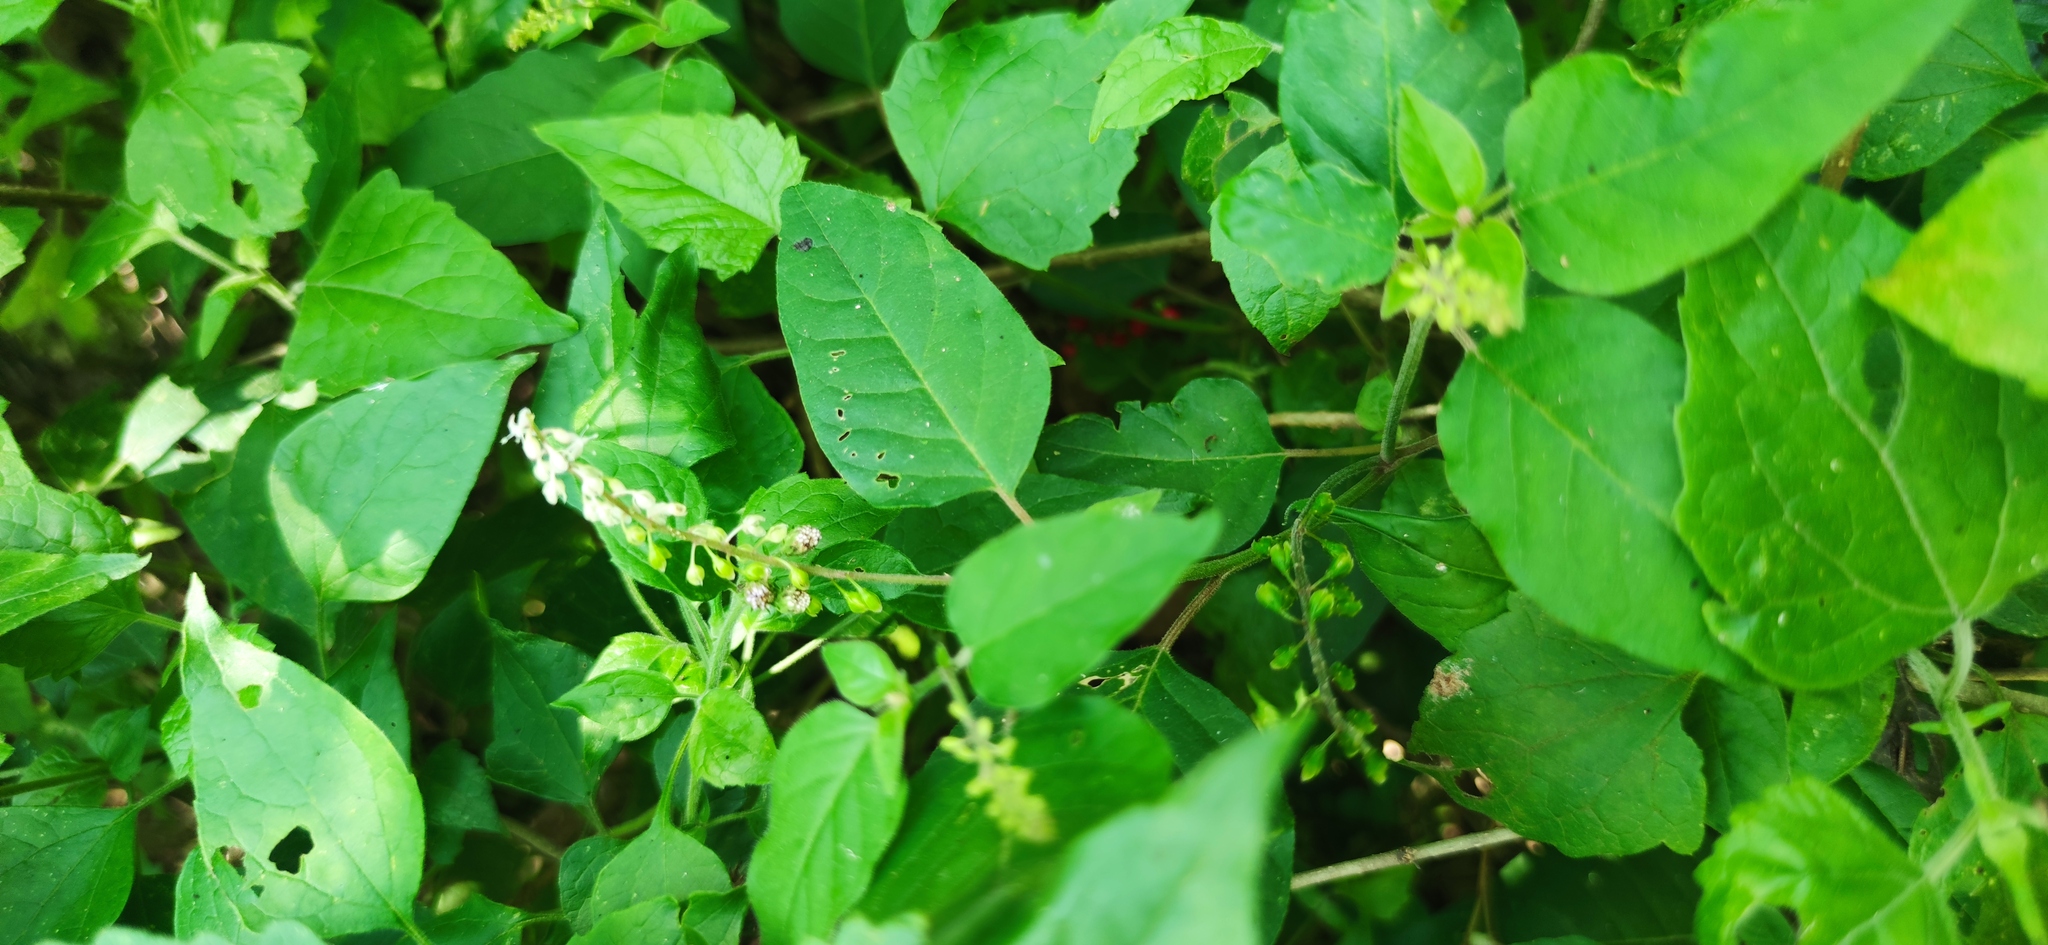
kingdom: Plantae
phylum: Tracheophyta
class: Magnoliopsida
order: Caryophyllales
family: Phytolaccaceae
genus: Rivina
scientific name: Rivina humilis
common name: Rougeplant
